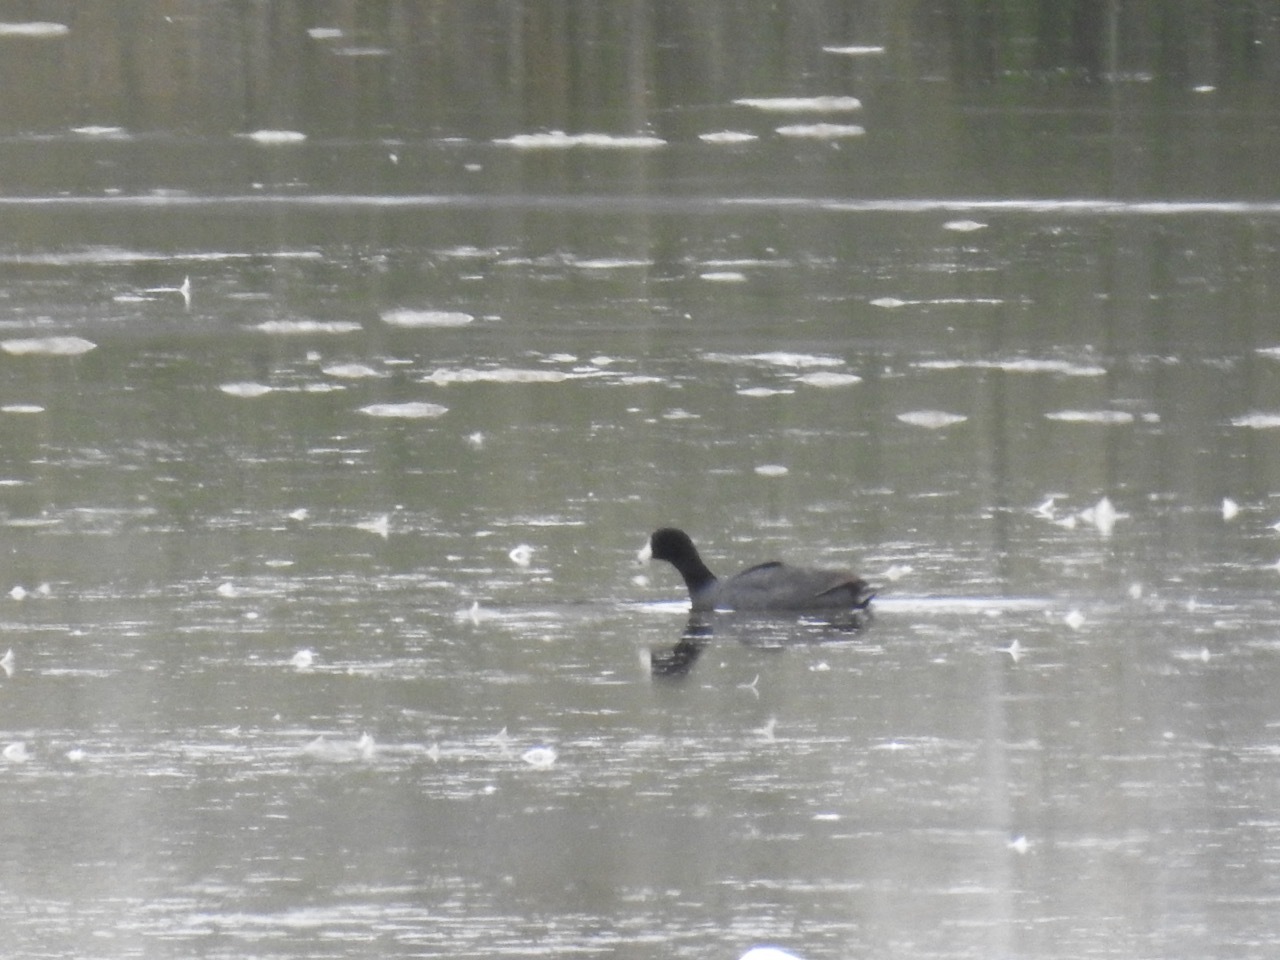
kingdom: Animalia
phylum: Chordata
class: Aves
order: Gruiformes
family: Rallidae
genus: Fulica
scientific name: Fulica americana
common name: American coot
